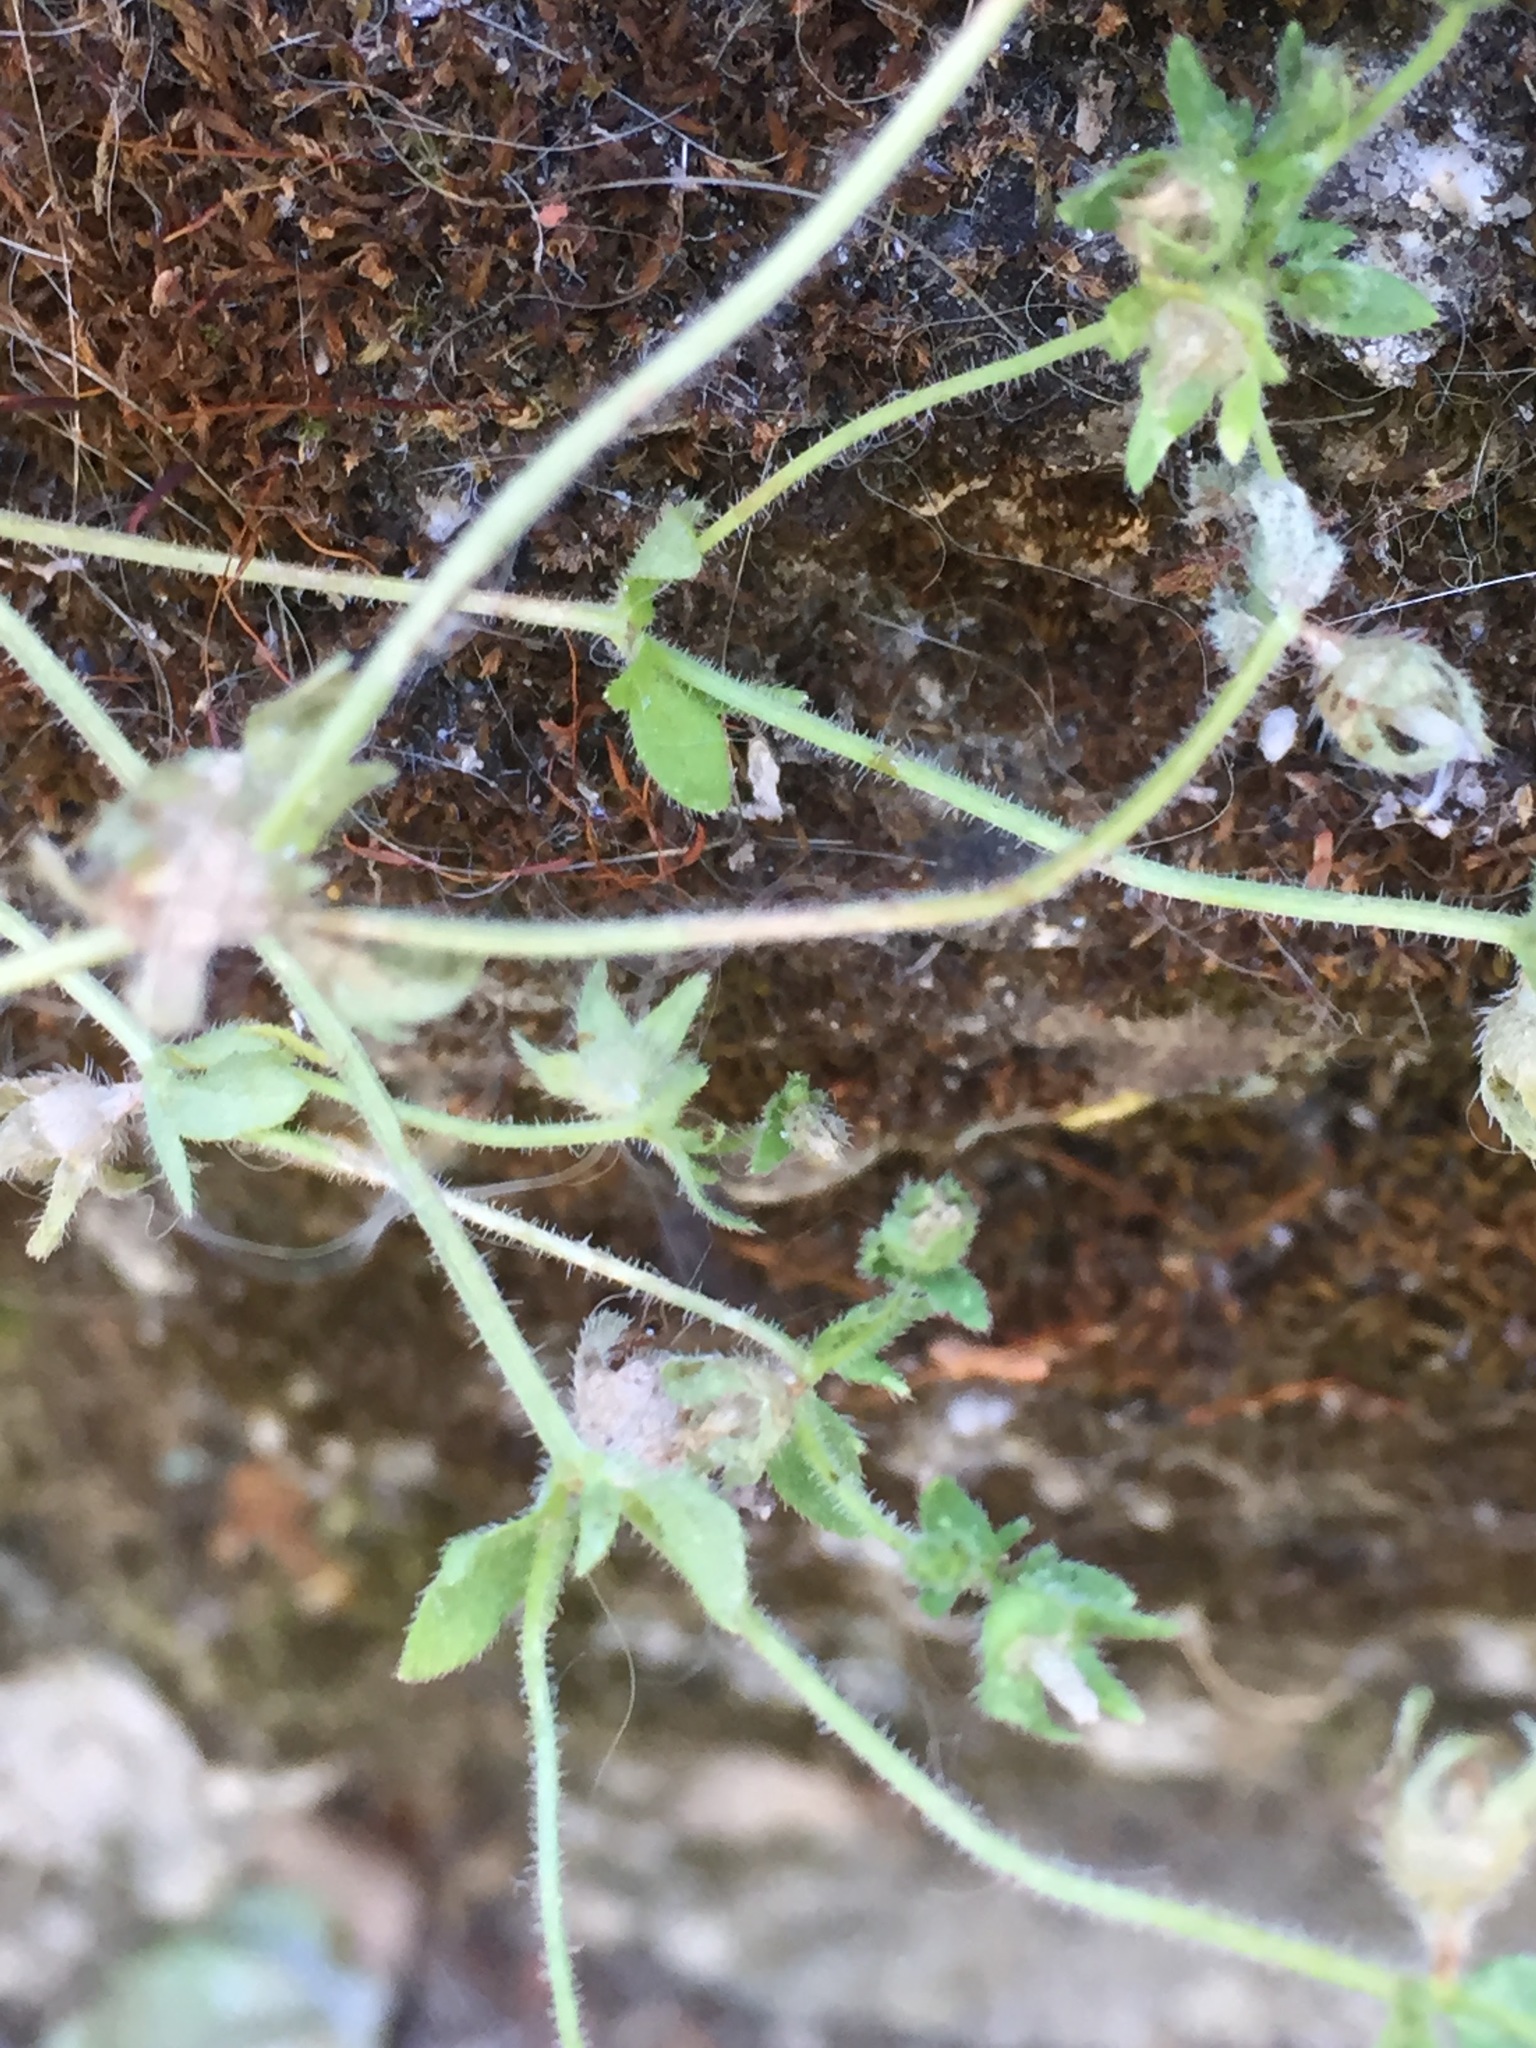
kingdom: Plantae
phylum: Tracheophyta
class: Magnoliopsida
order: Asterales
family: Campanulaceae
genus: Campanula
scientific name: Campanula erinus
